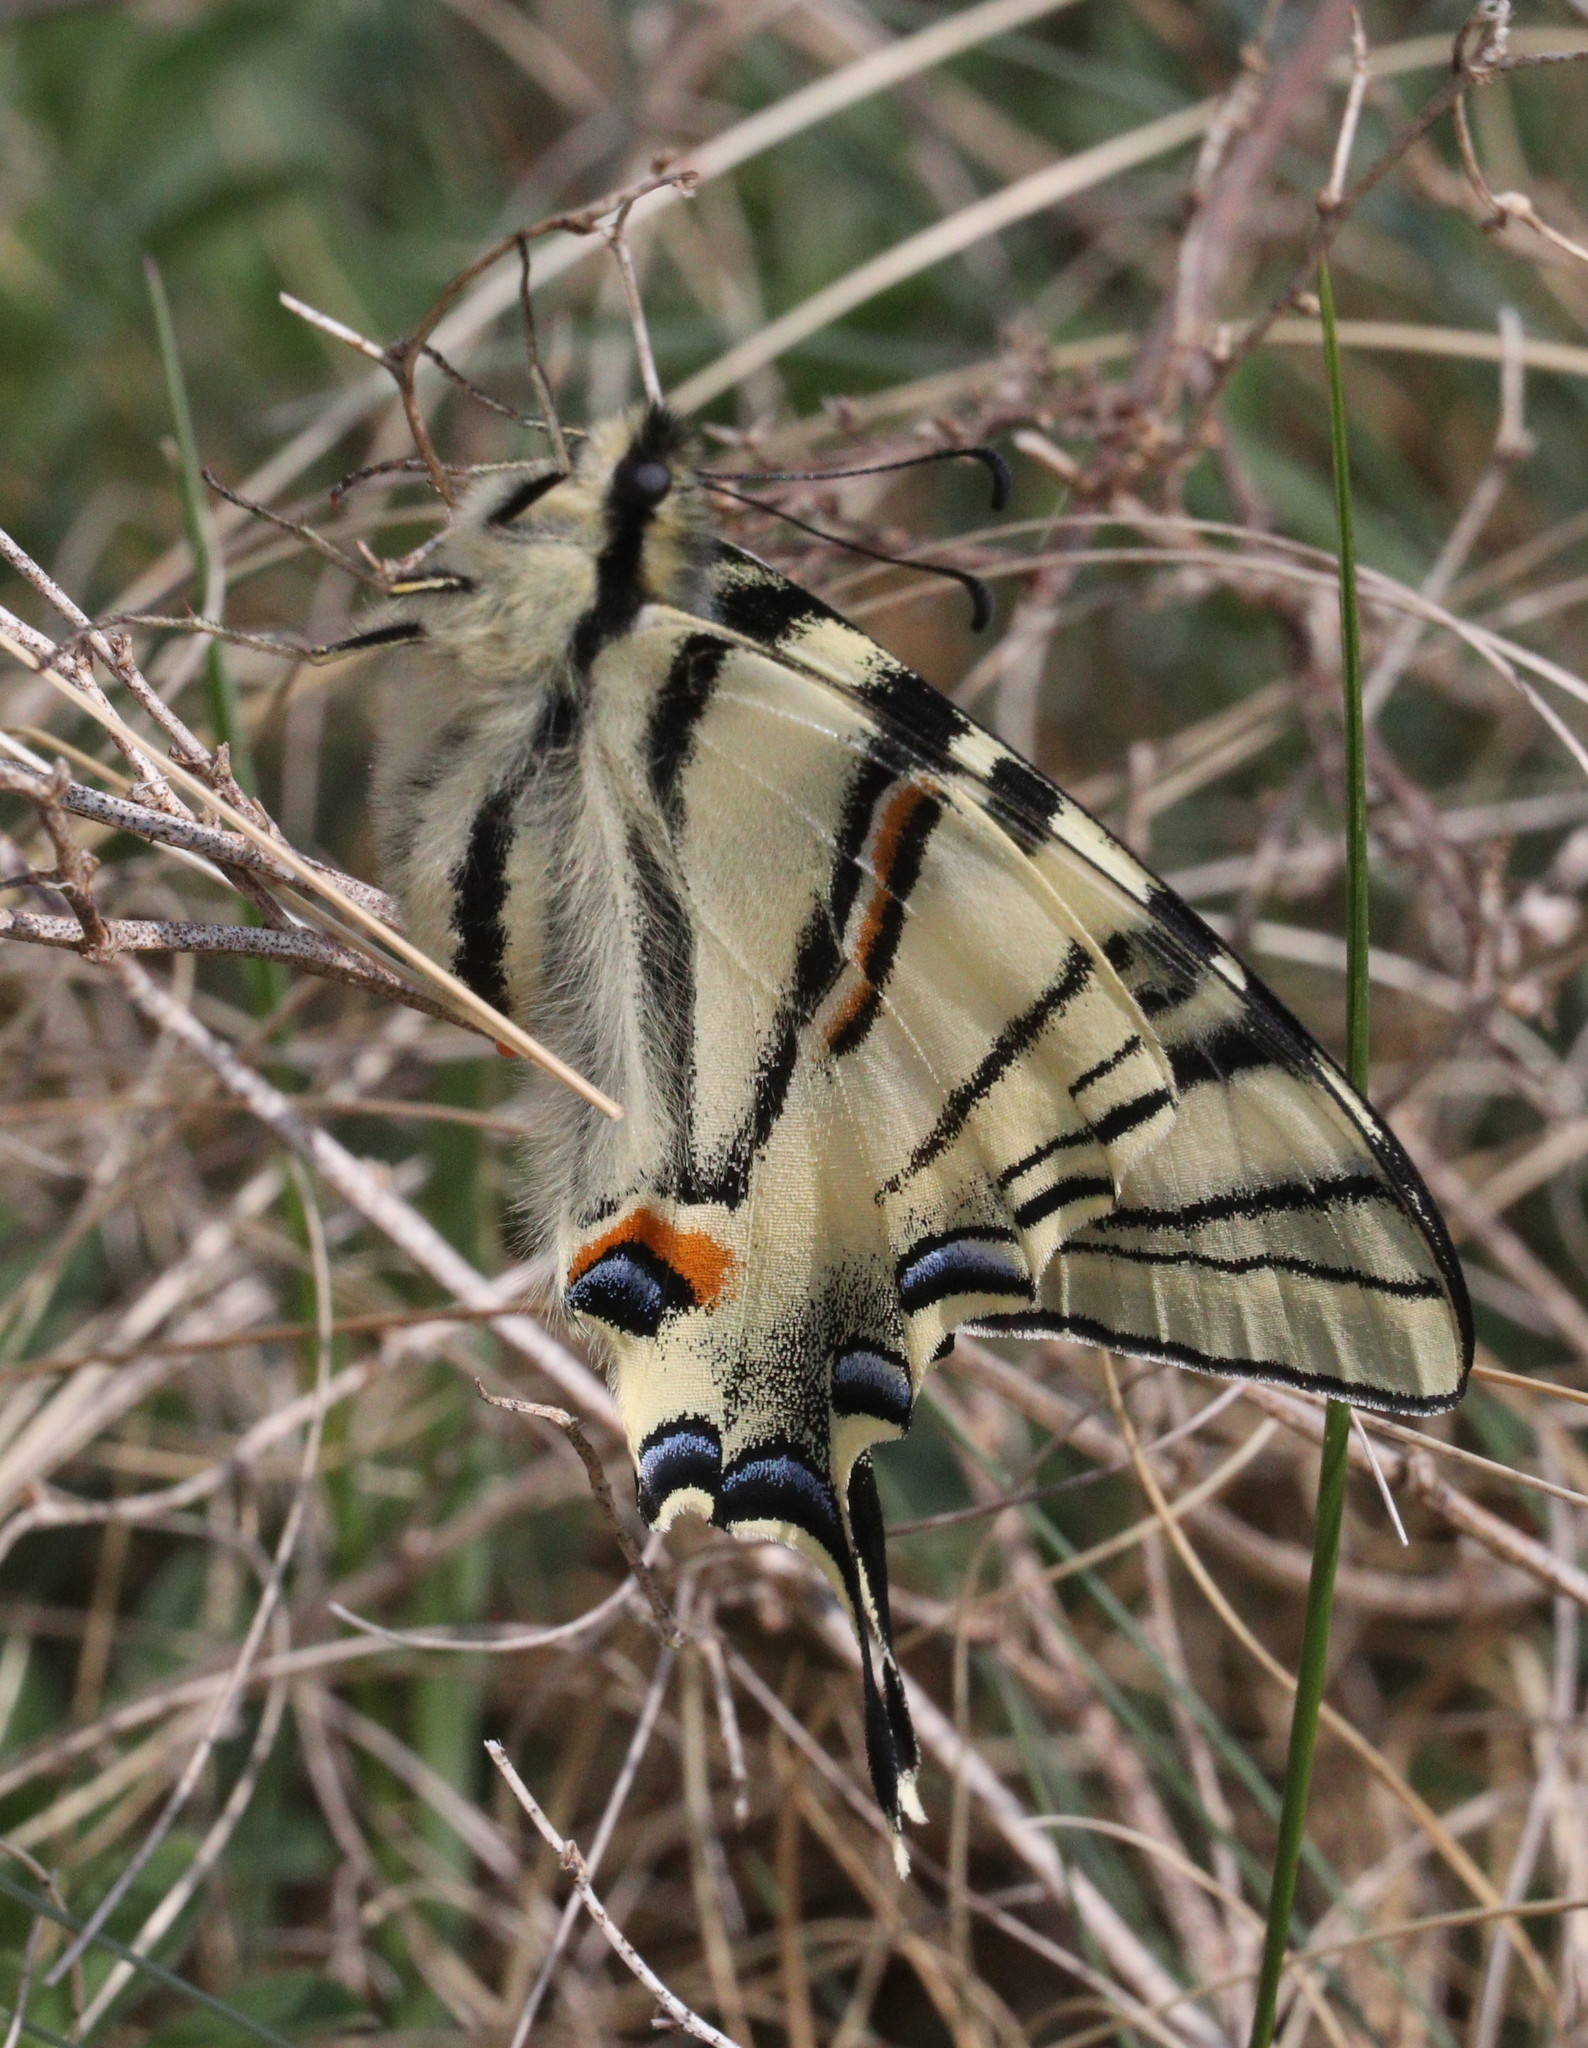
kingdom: Animalia
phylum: Arthropoda
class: Insecta
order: Lepidoptera
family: Papilionidae
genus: Iphiclides
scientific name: Iphiclides podalirius
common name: Scarce swallowtail
